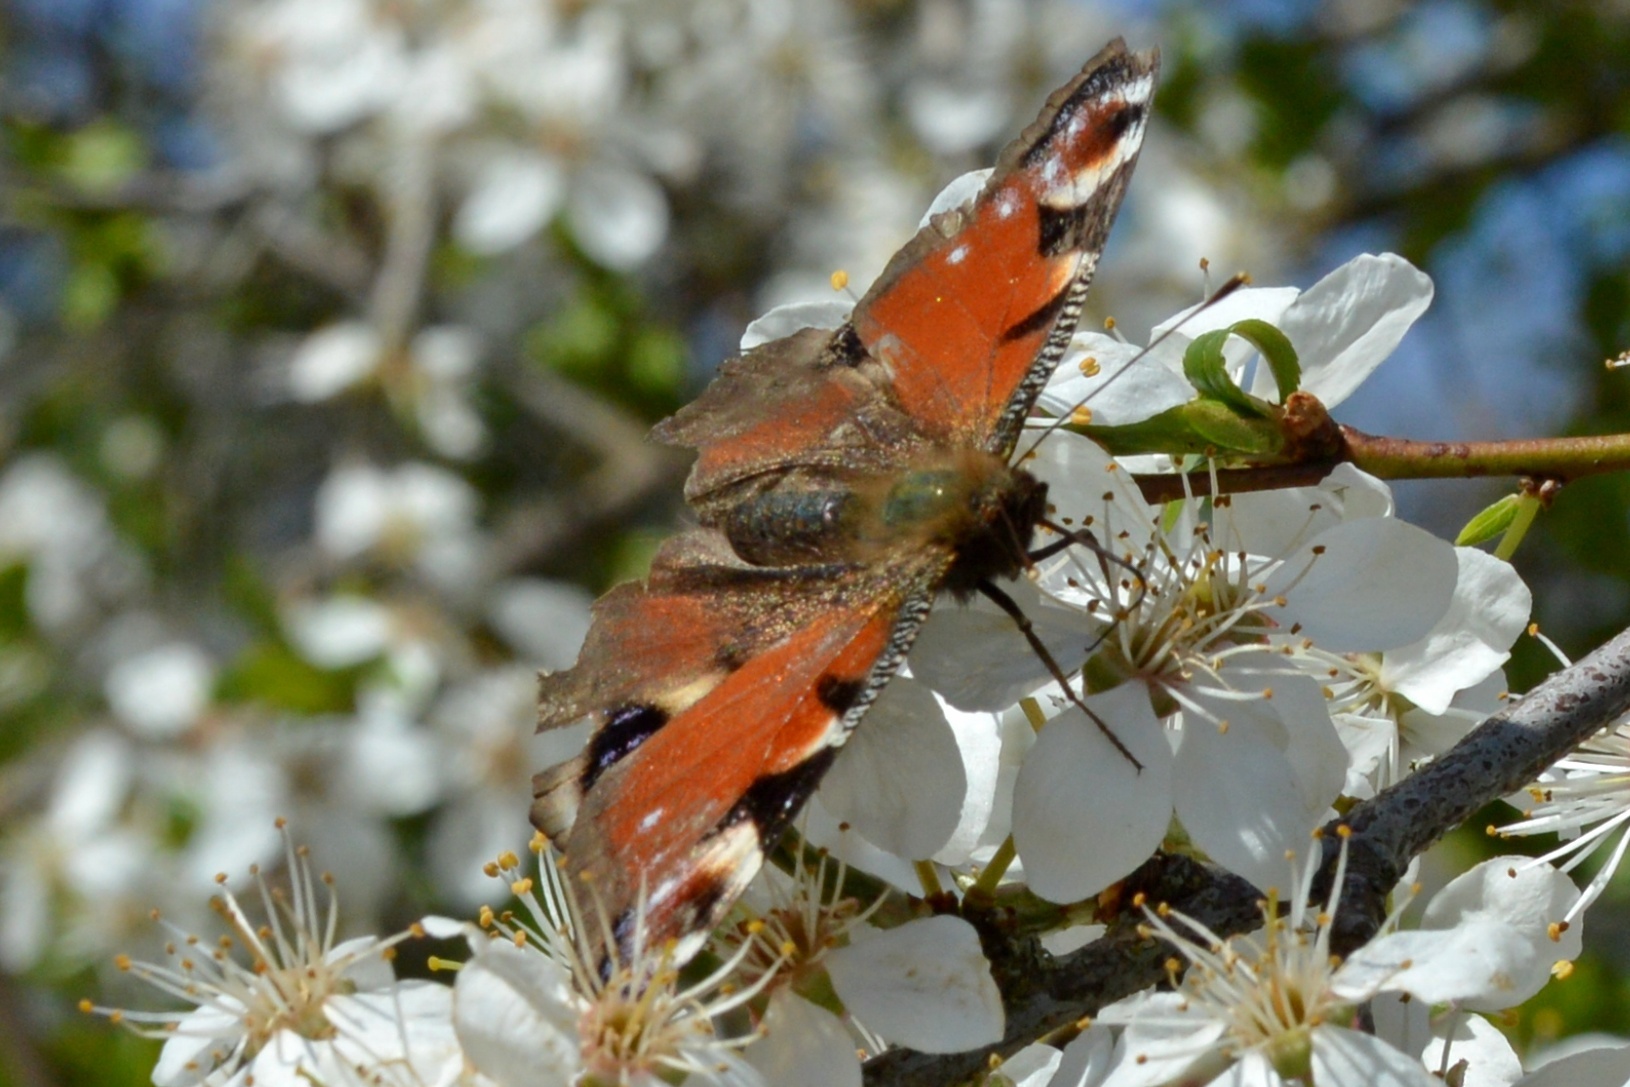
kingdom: Animalia
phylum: Arthropoda
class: Insecta
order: Lepidoptera
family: Nymphalidae
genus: Aglais
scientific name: Aglais io
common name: Peacock
